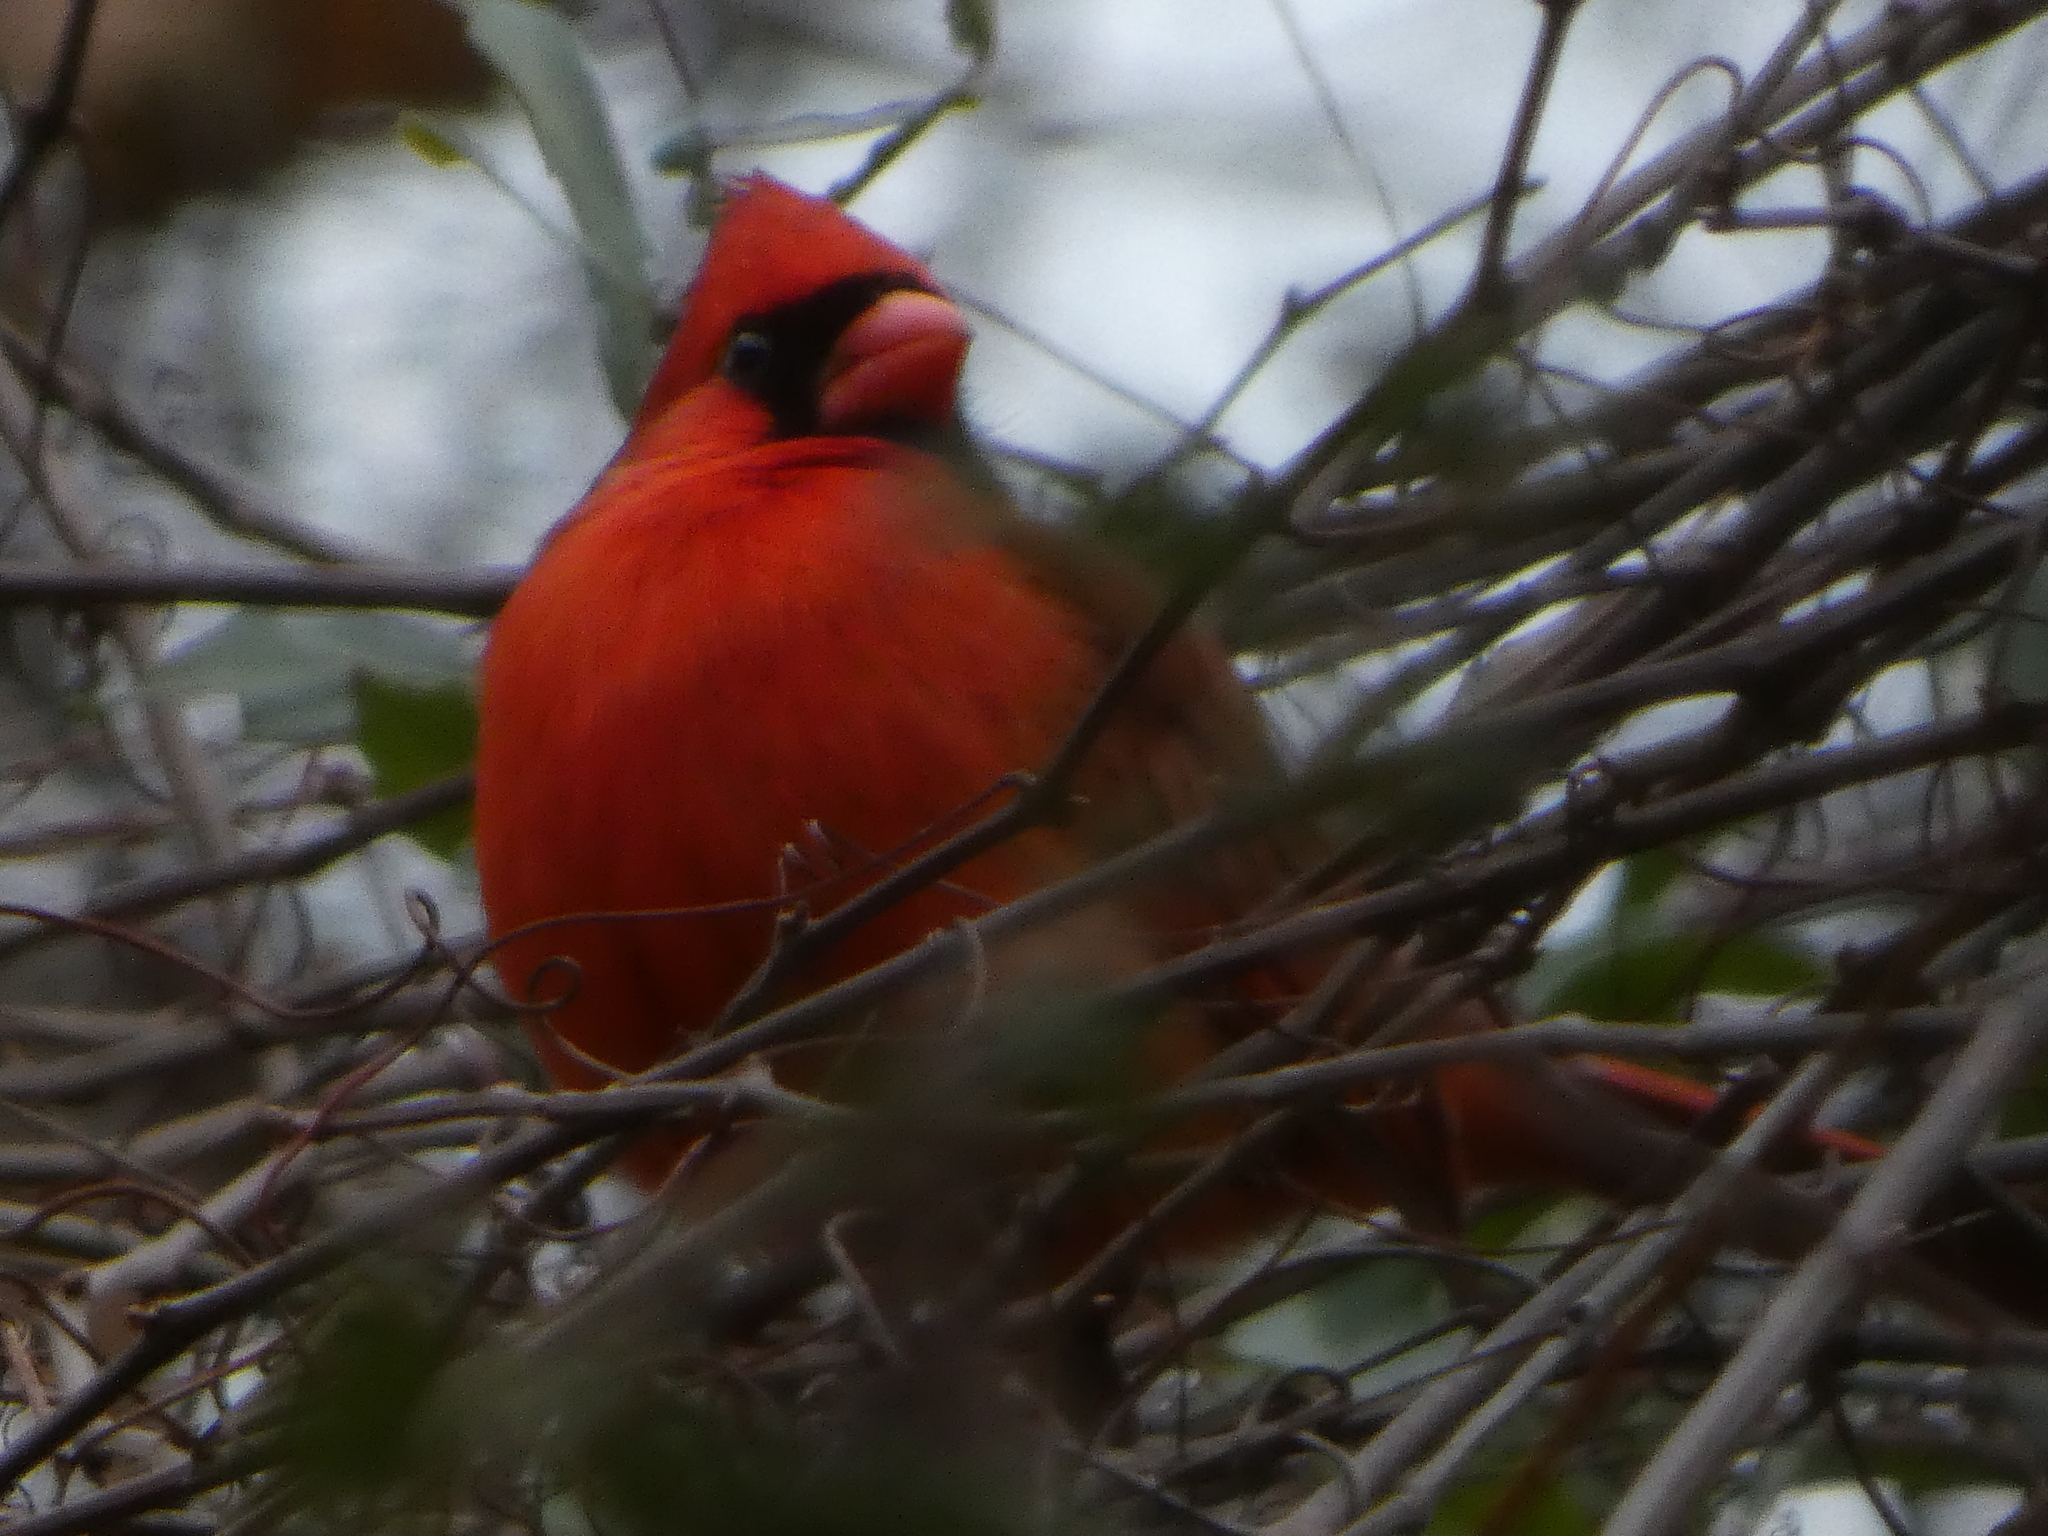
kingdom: Animalia
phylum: Chordata
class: Aves
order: Passeriformes
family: Cardinalidae
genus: Cardinalis
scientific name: Cardinalis cardinalis
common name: Northern cardinal
